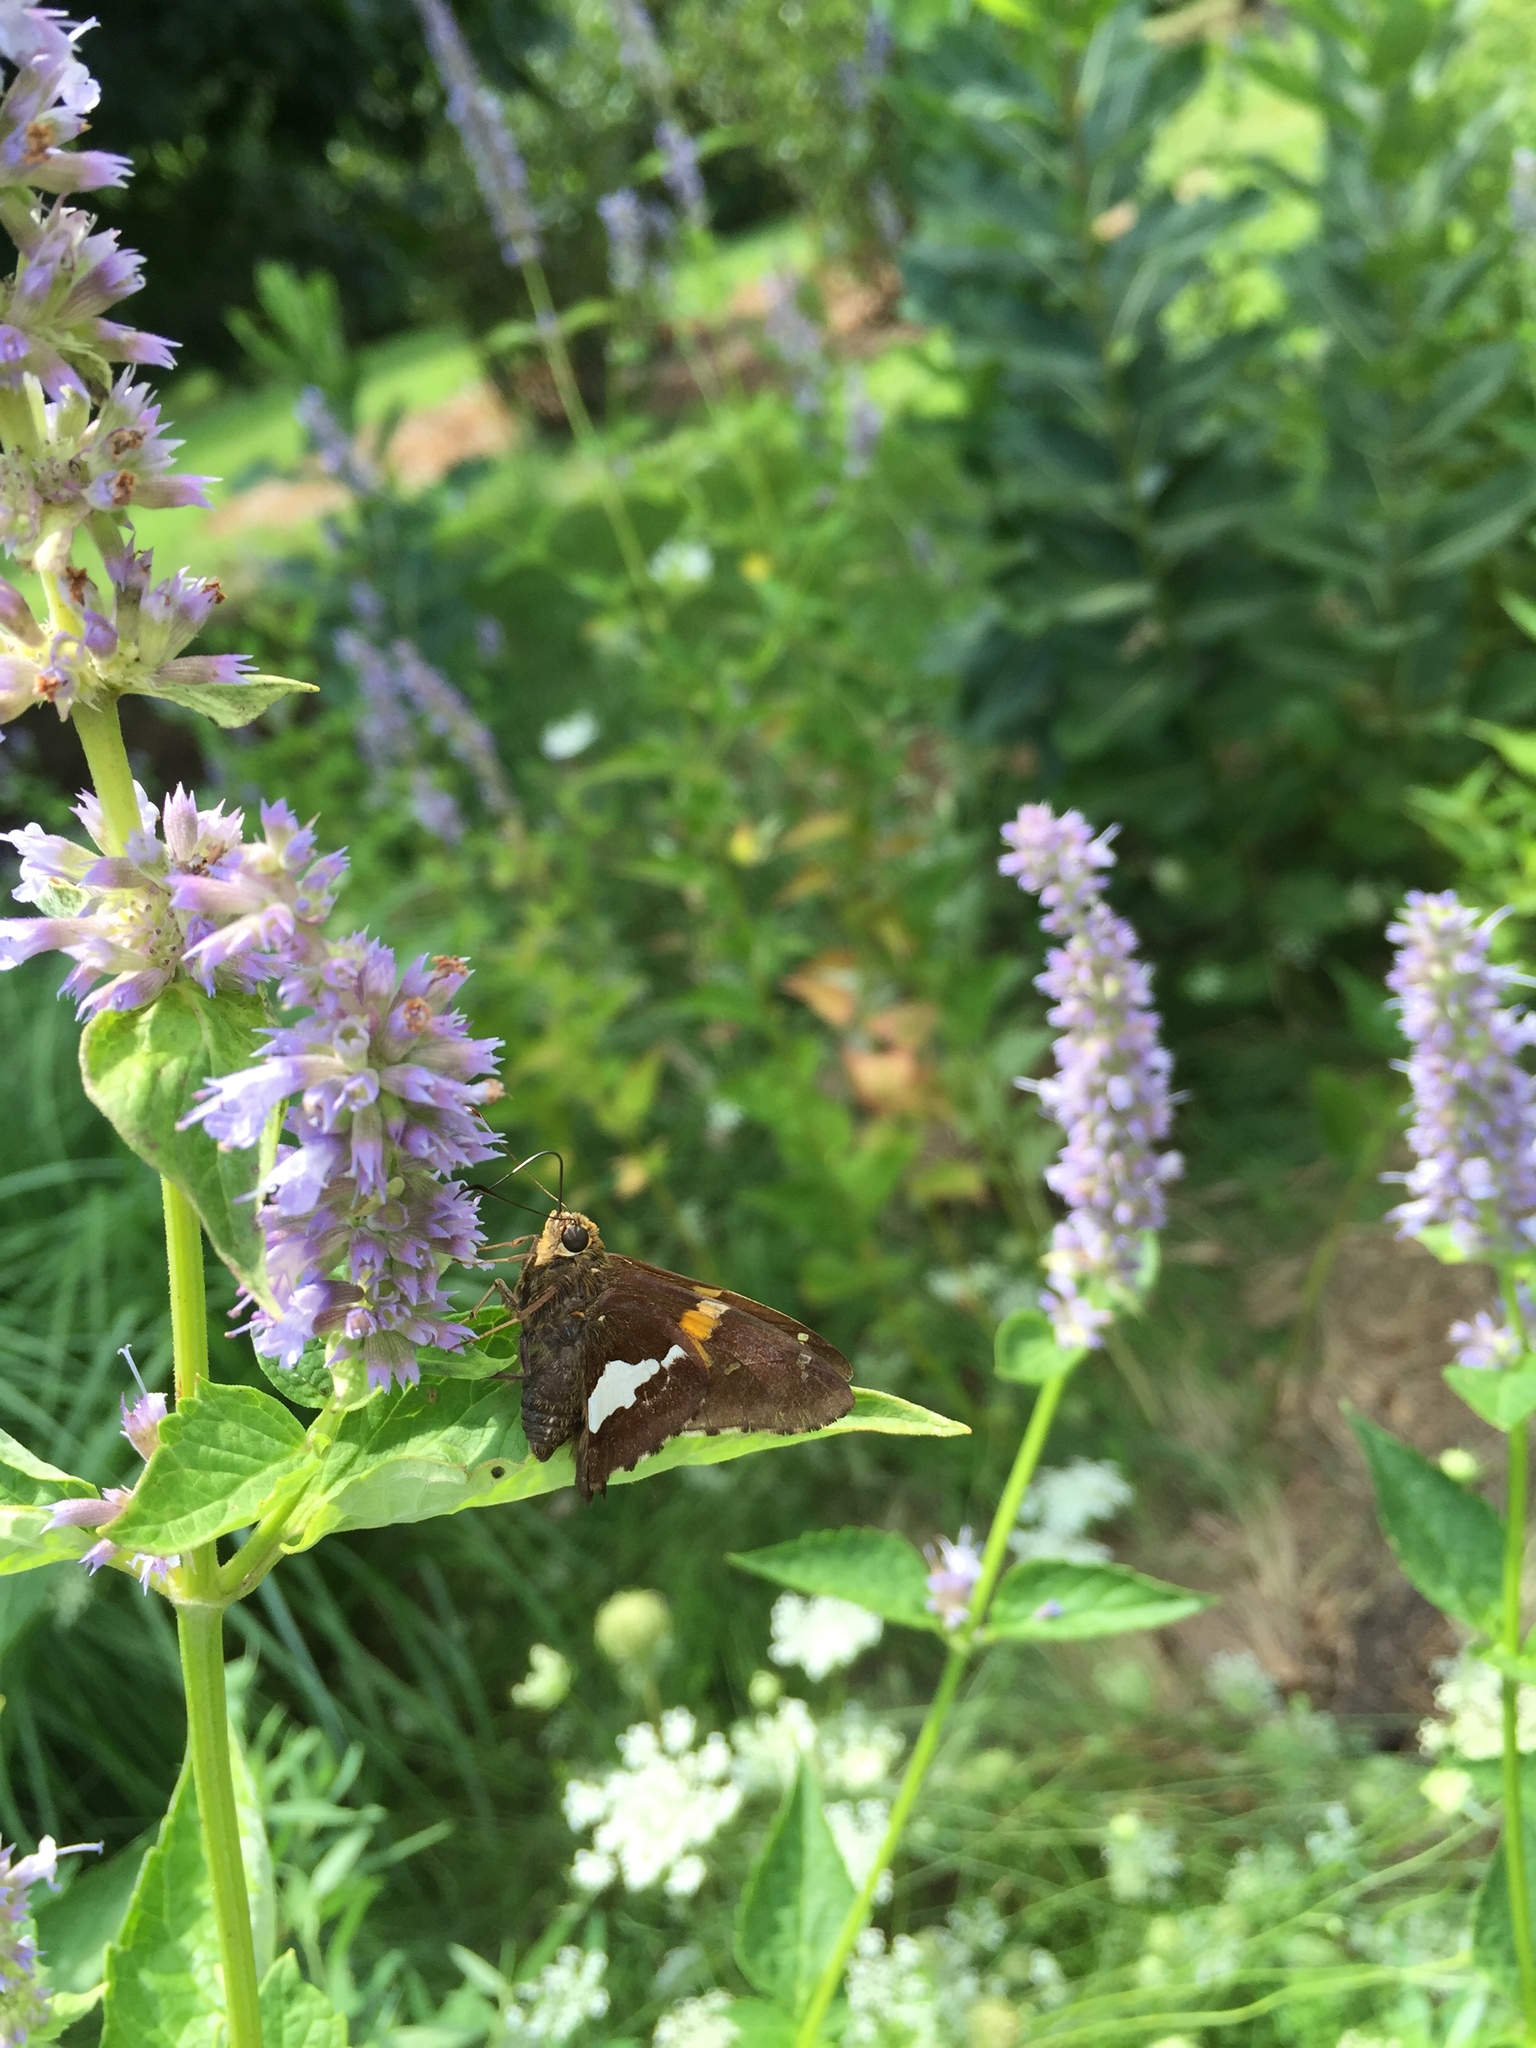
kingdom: Animalia
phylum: Arthropoda
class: Insecta
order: Lepidoptera
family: Hesperiidae
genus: Epargyreus
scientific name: Epargyreus clarus
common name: Silver-spotted skipper
